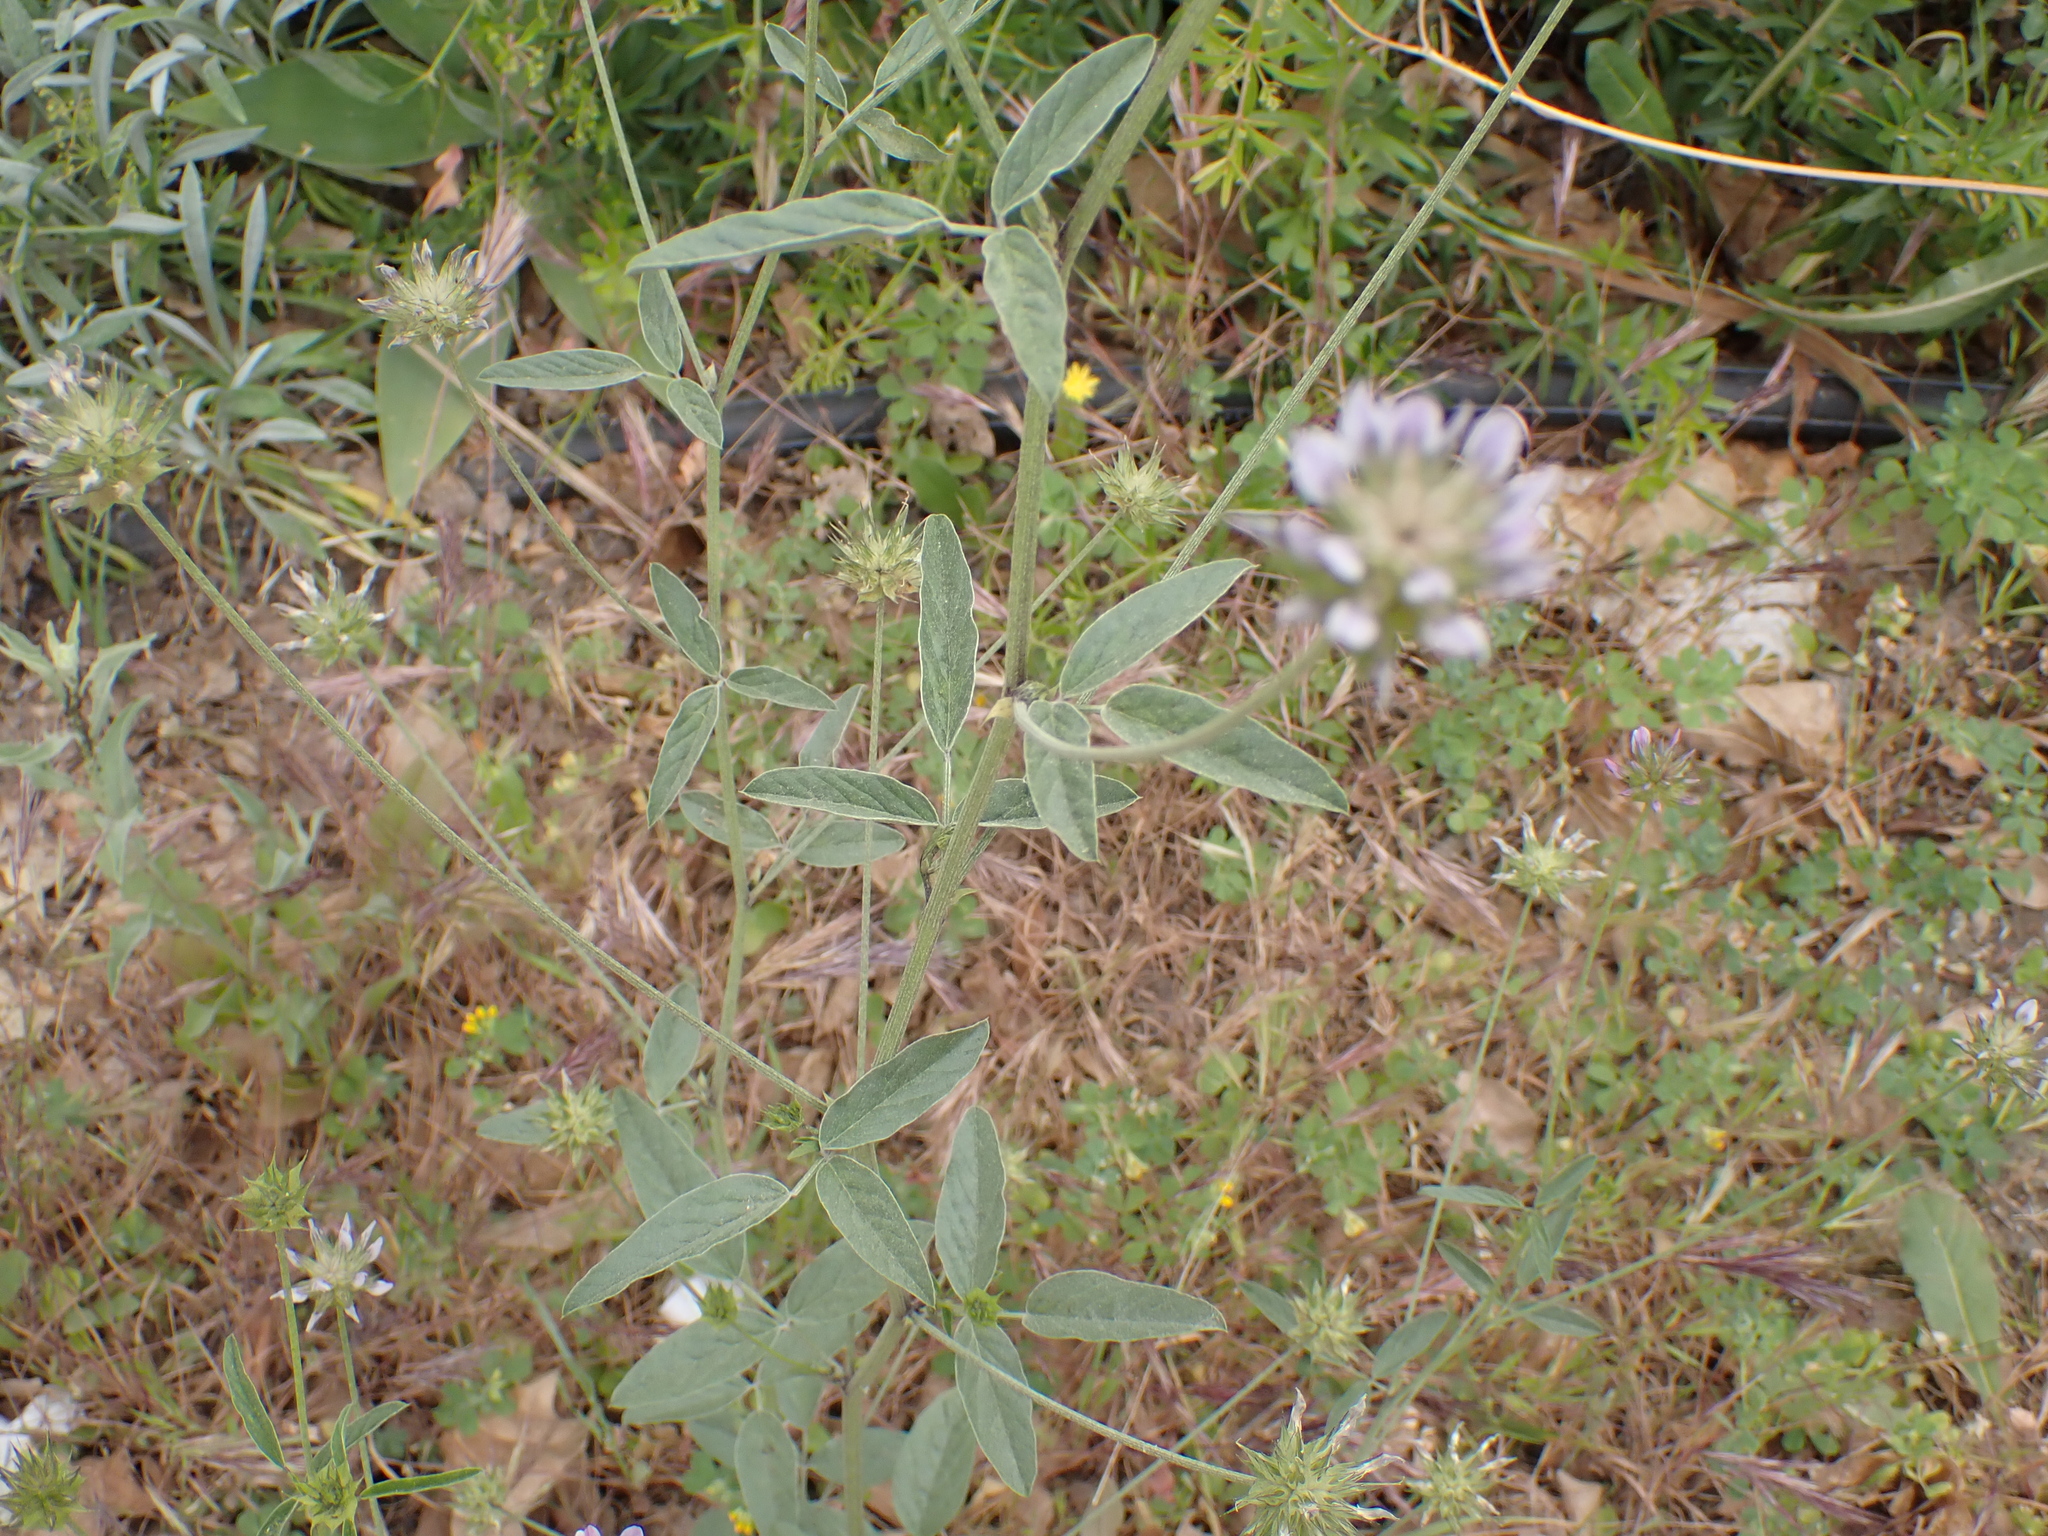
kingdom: Plantae
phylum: Tracheophyta
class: Magnoliopsida
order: Fabales
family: Fabaceae
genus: Bituminaria
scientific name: Bituminaria bituminosa
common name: Arabian pea
